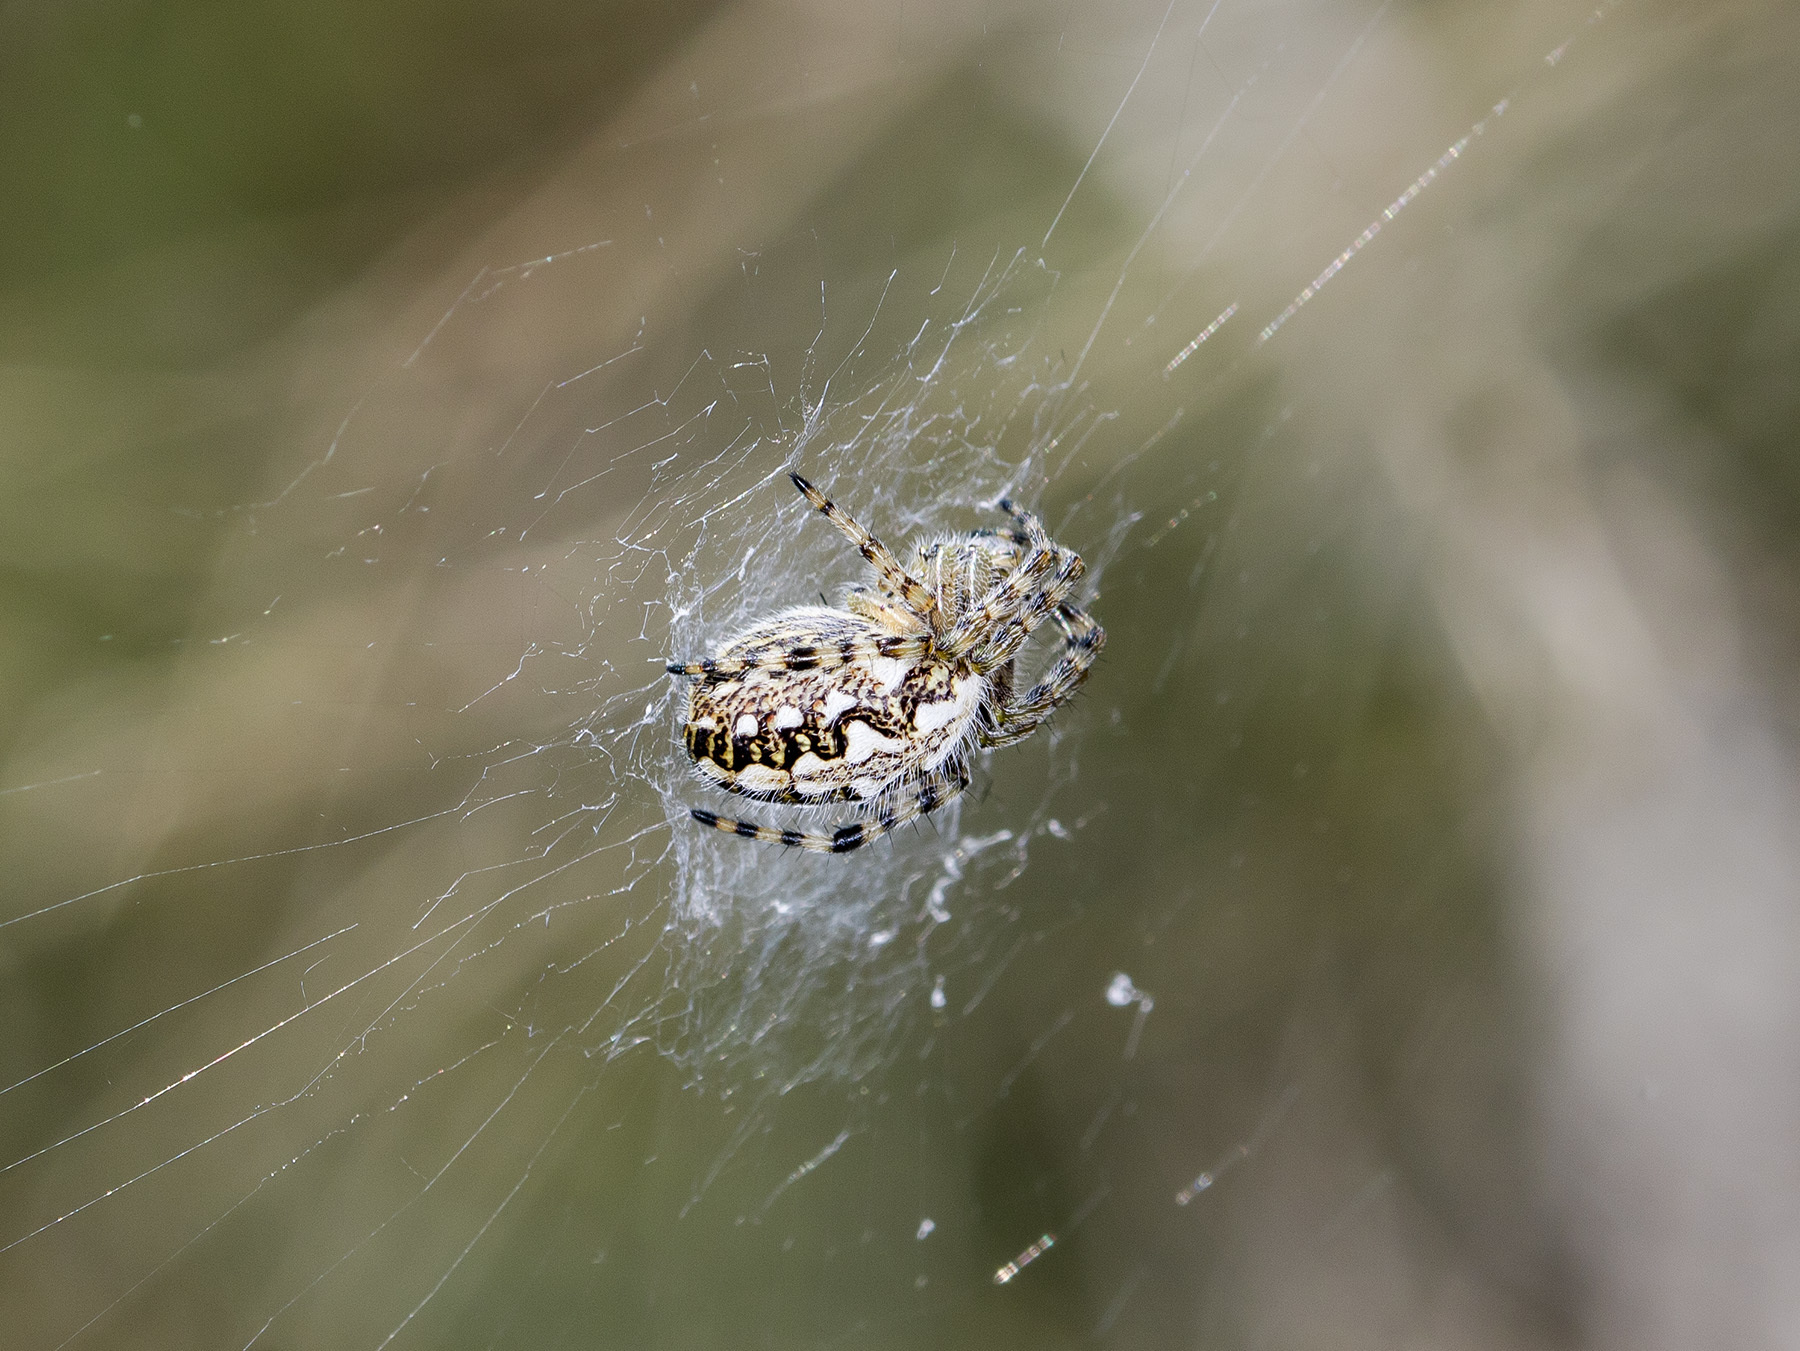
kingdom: Animalia
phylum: Arthropoda
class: Arachnida
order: Araneae
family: Araneidae
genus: Aculepeira
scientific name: Aculepeira armida
